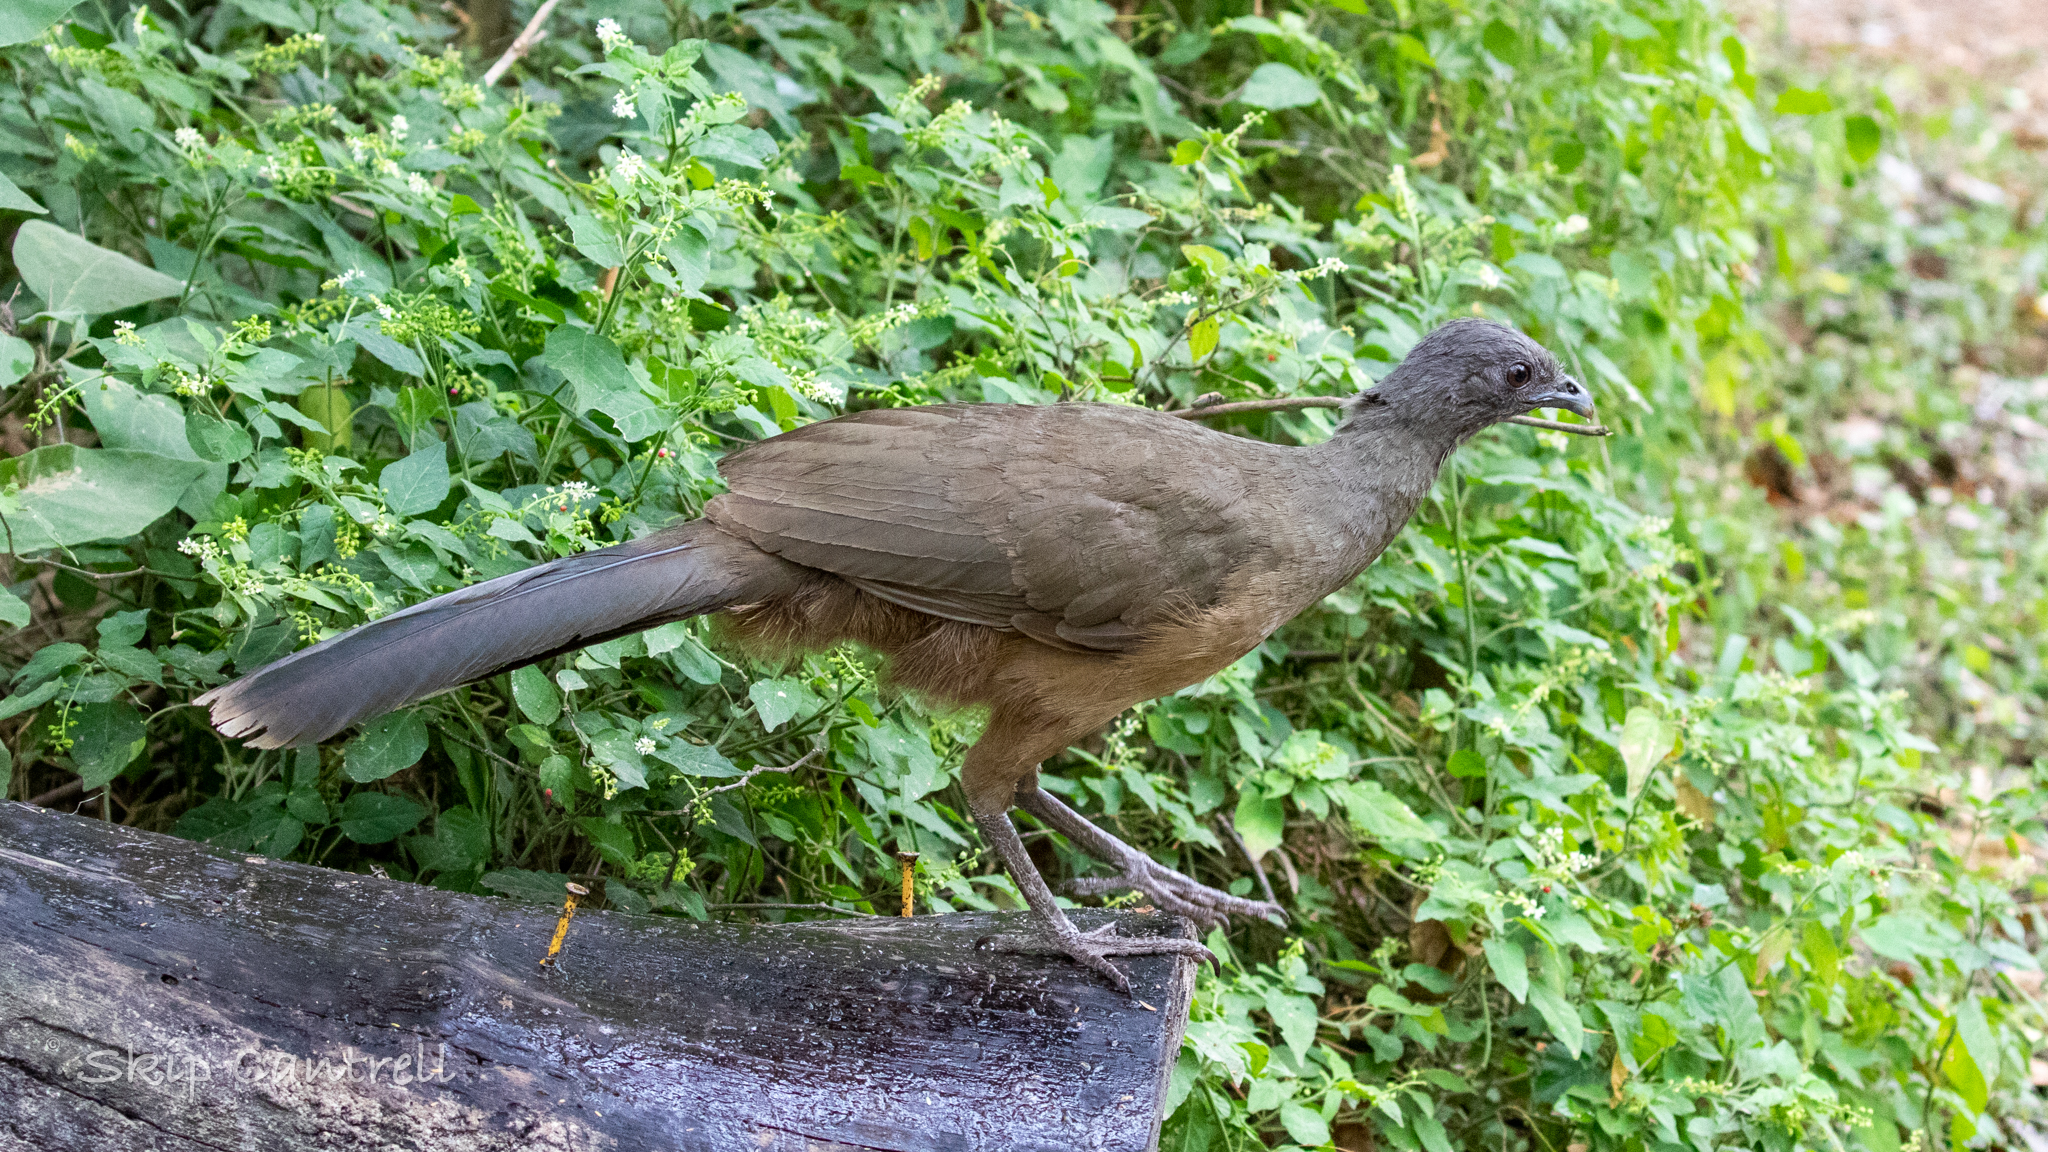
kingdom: Animalia
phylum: Chordata
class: Aves
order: Galliformes
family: Cracidae
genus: Ortalis
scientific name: Ortalis vetula
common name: Plain chachalaca
